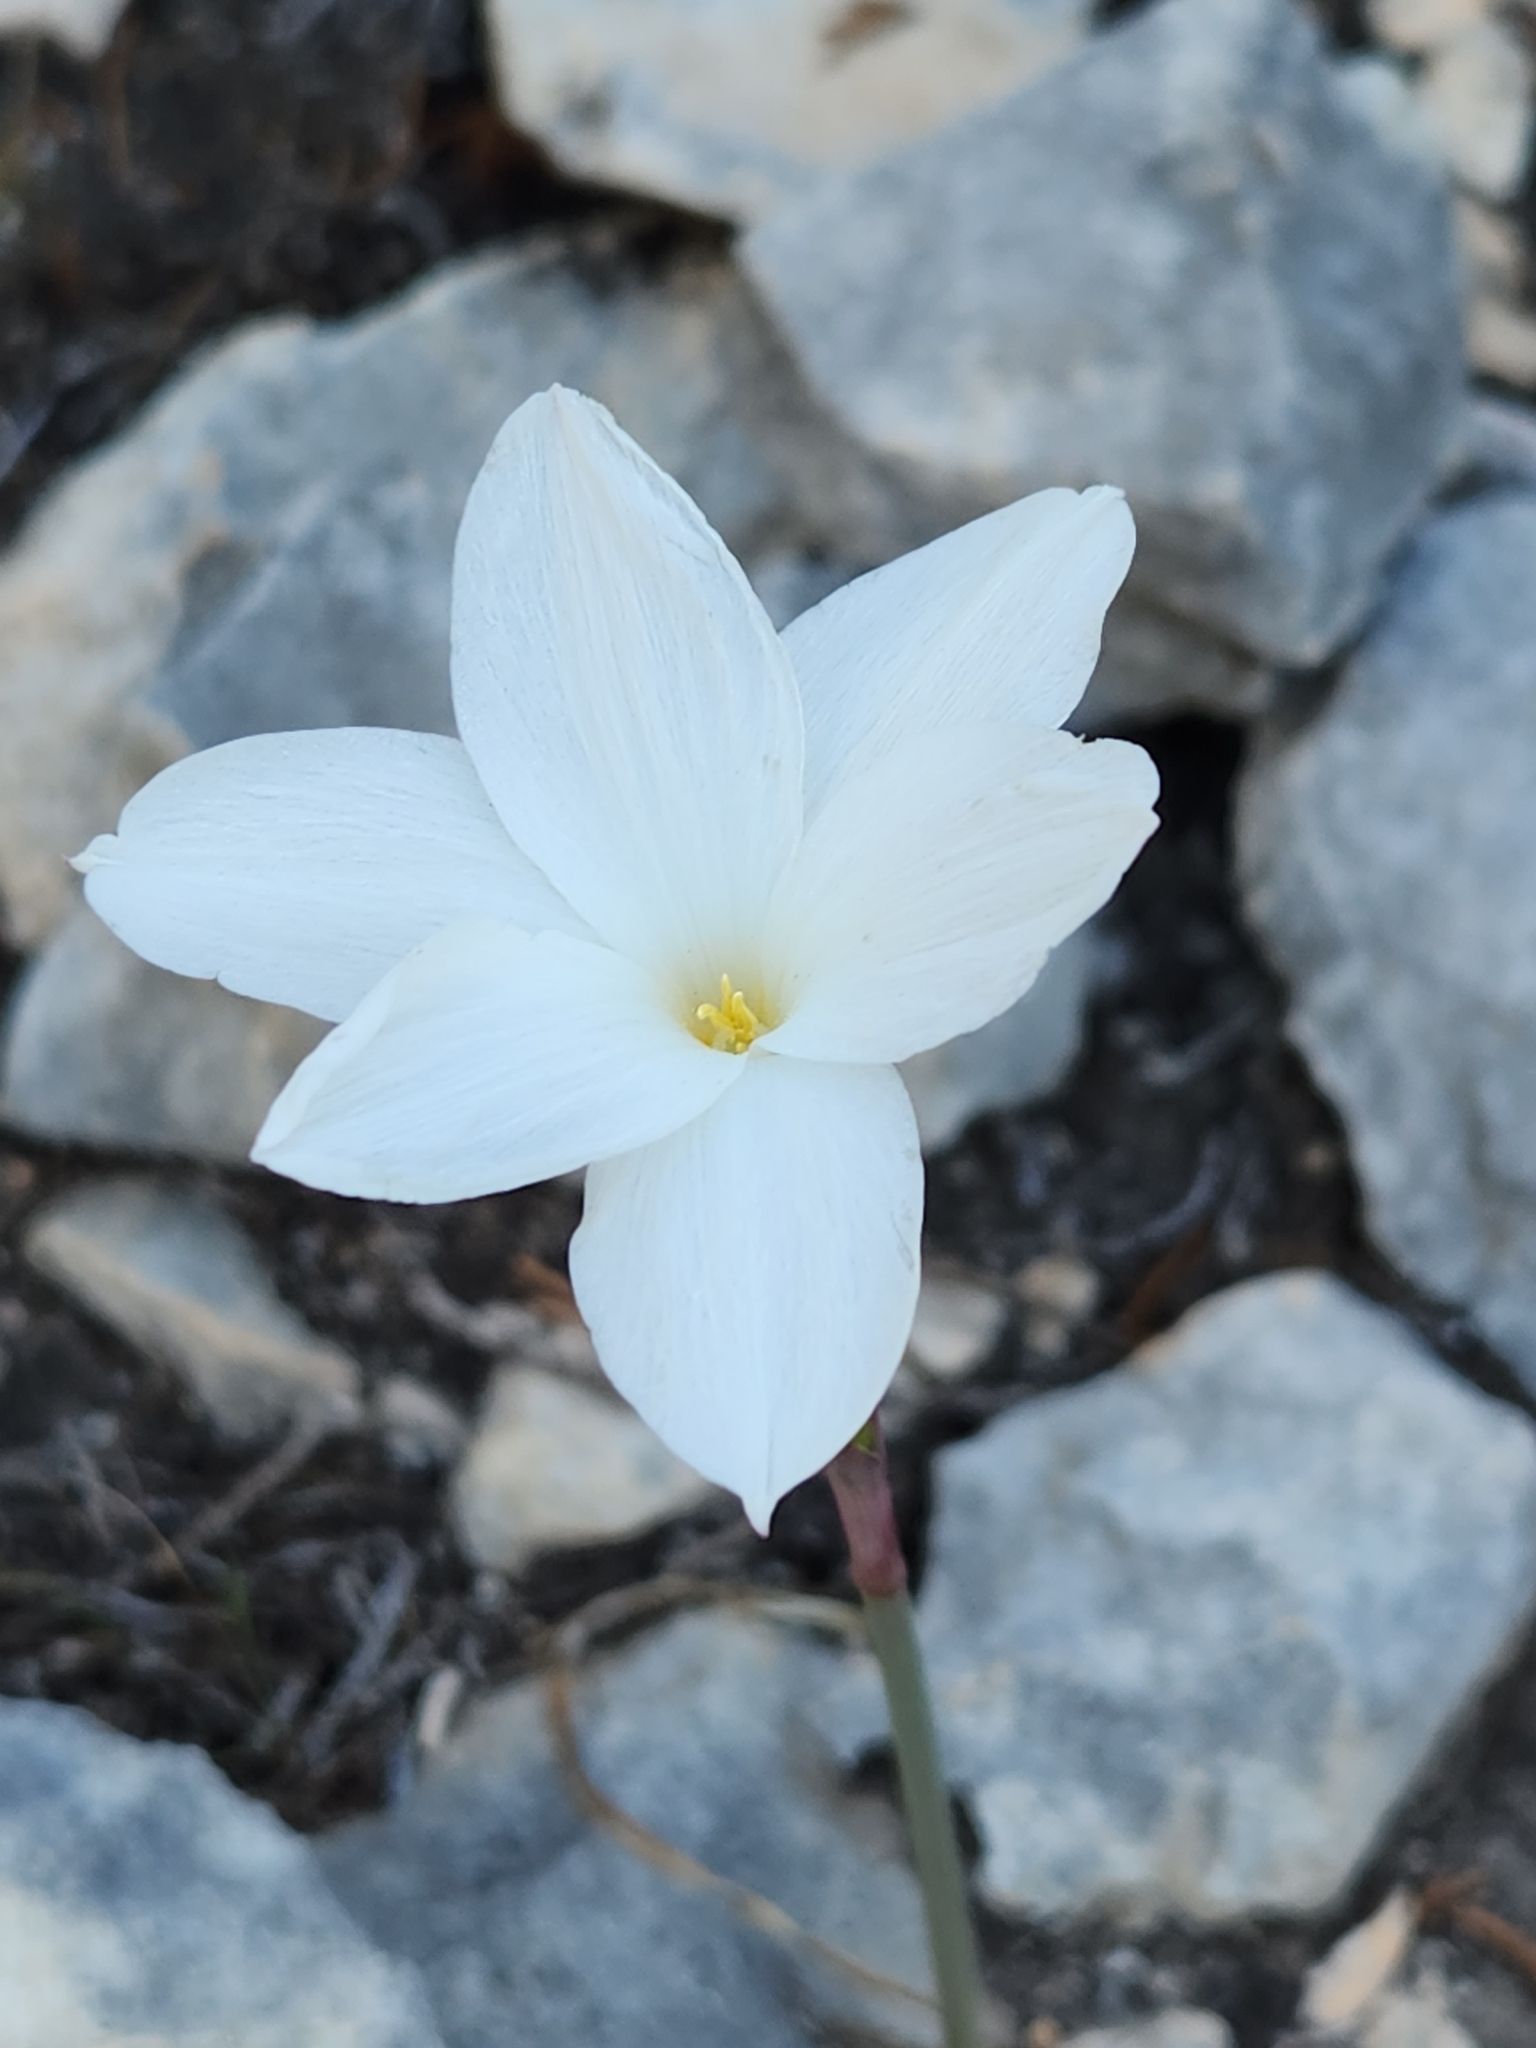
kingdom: Plantae
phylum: Tracheophyta
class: Liliopsida
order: Asparagales
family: Amaryllidaceae
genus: Zephyranthes
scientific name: Zephyranthes drummondii
